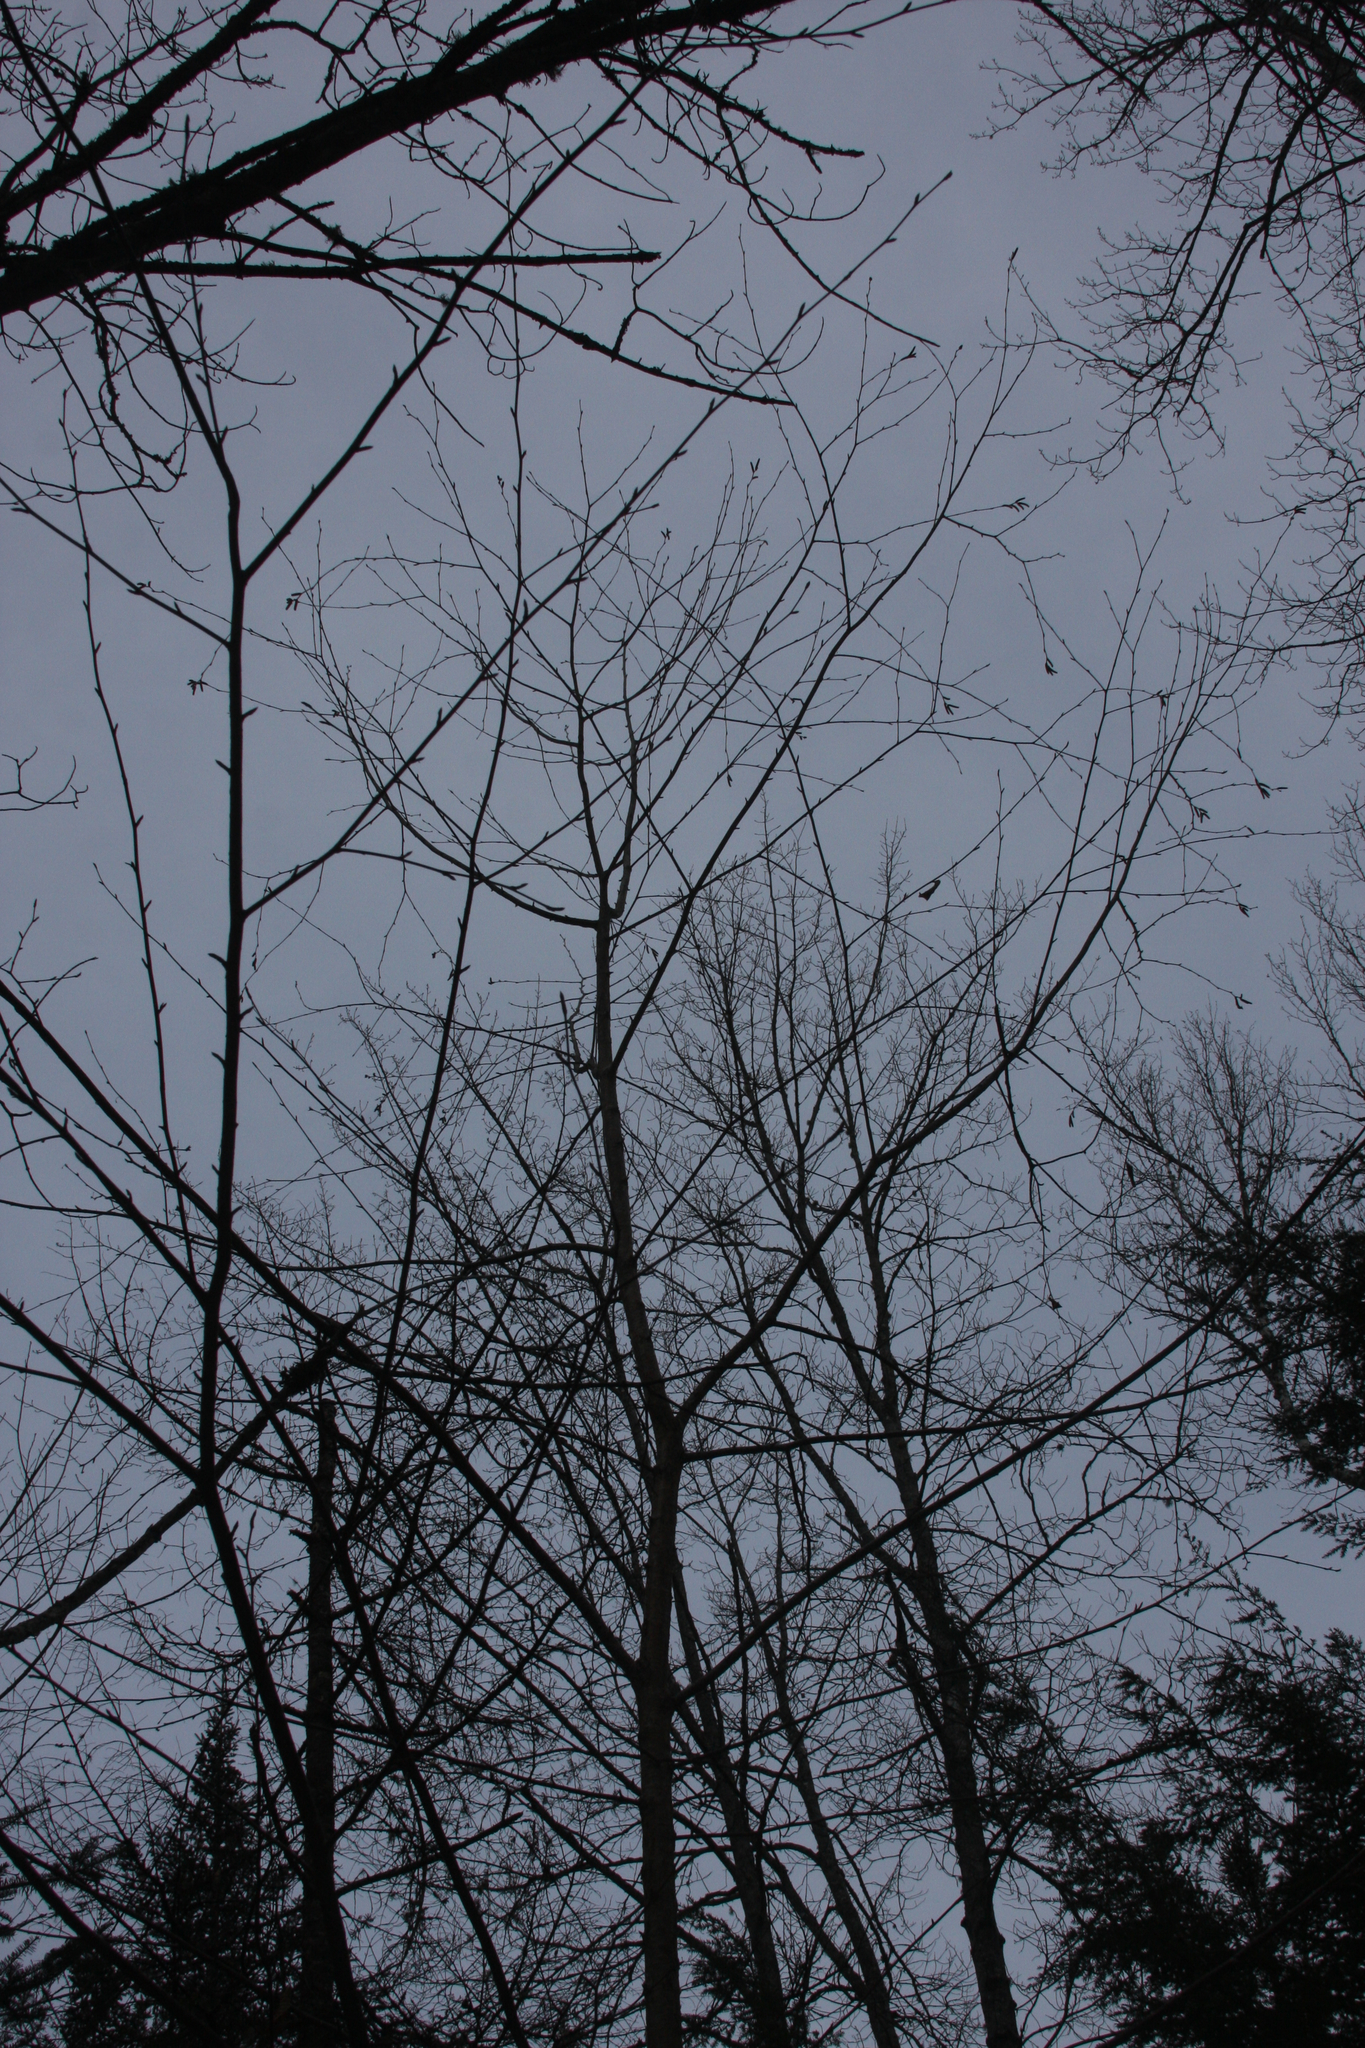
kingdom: Plantae
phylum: Tracheophyta
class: Magnoliopsida
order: Fagales
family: Betulaceae
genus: Betula
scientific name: Betula alleghaniensis
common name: Yellow birch
